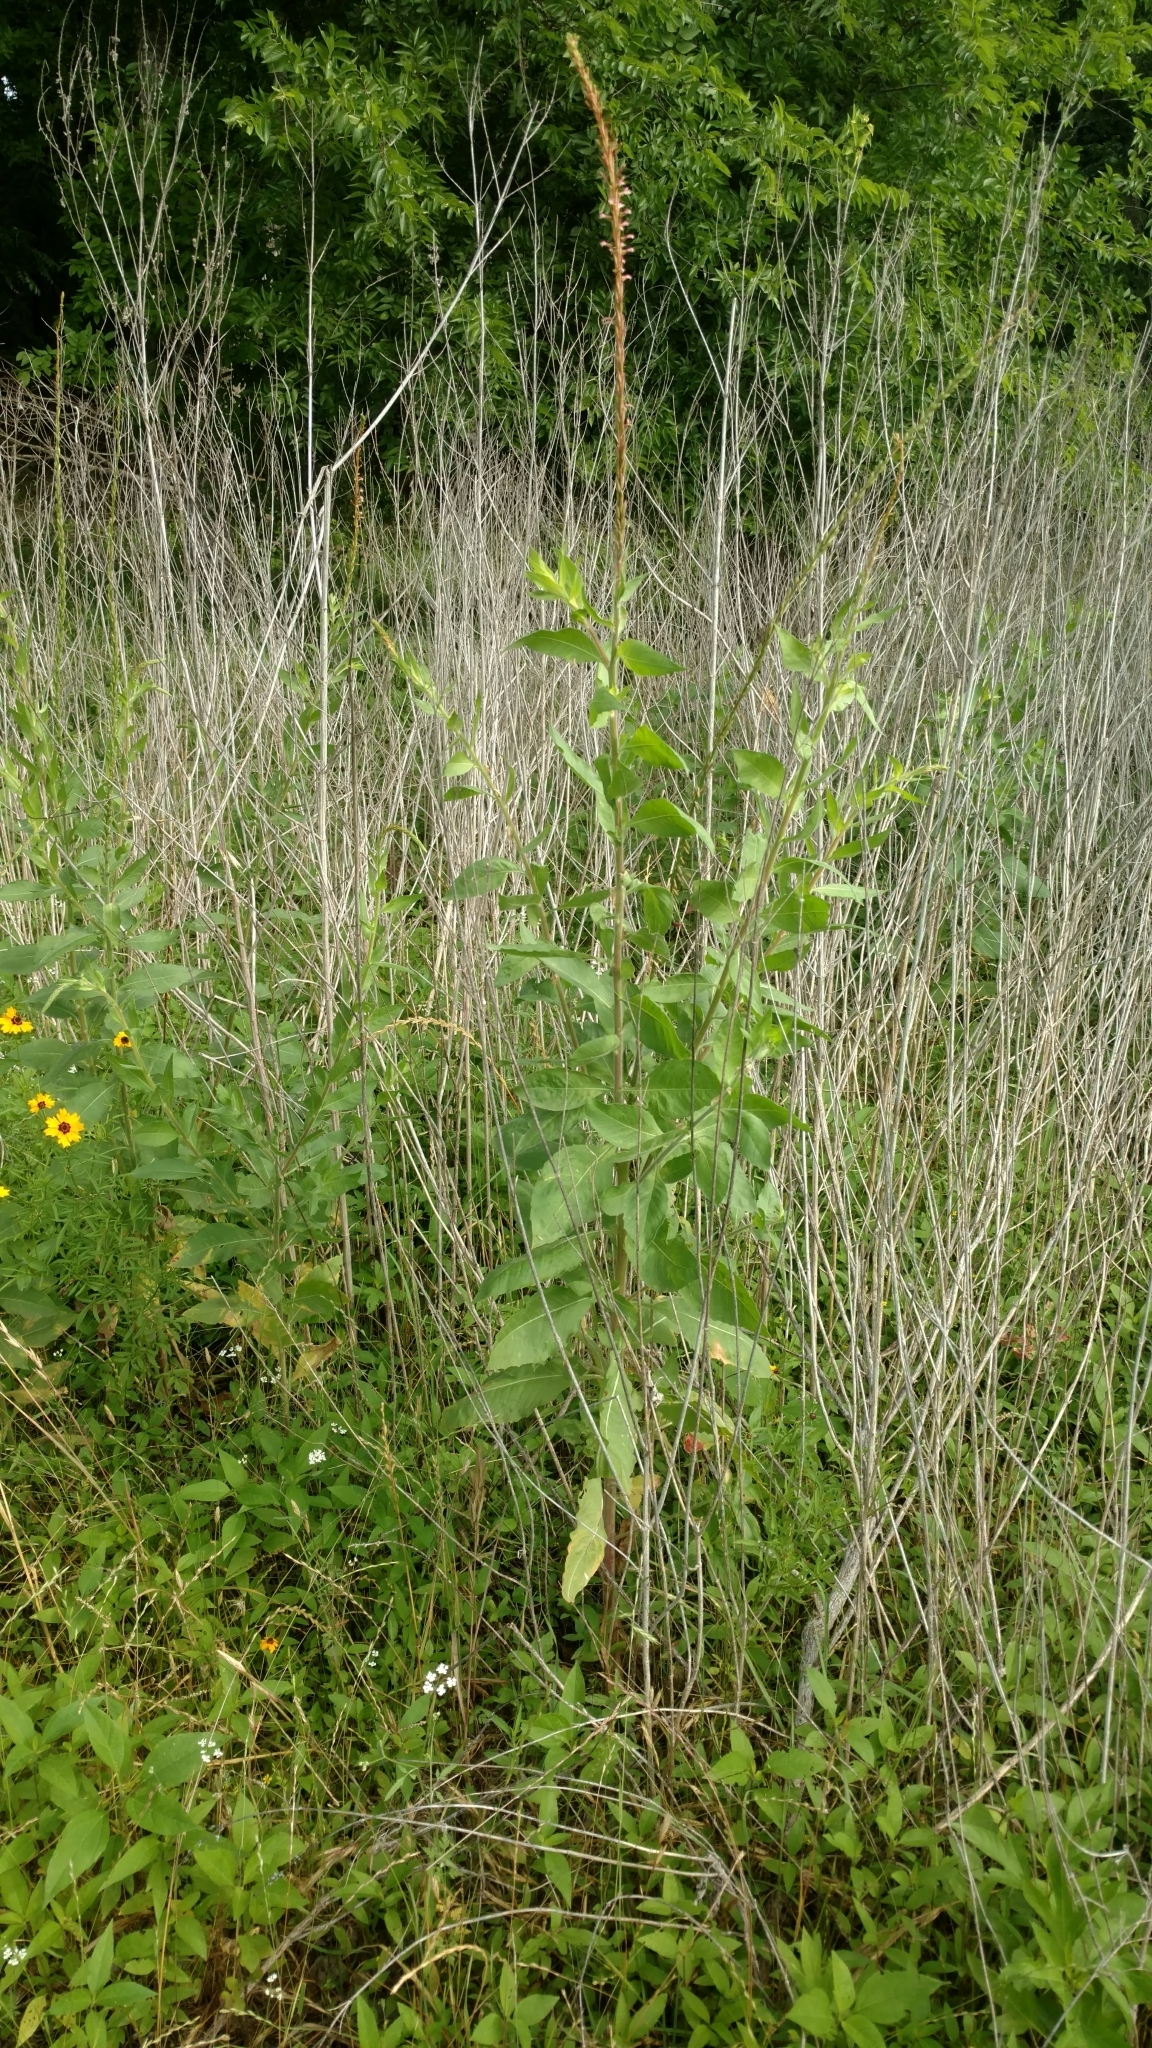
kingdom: Plantae
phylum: Tracheophyta
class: Magnoliopsida
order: Myrtales
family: Onagraceae
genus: Oenothera
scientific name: Oenothera curtiflora
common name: Velvetweed
